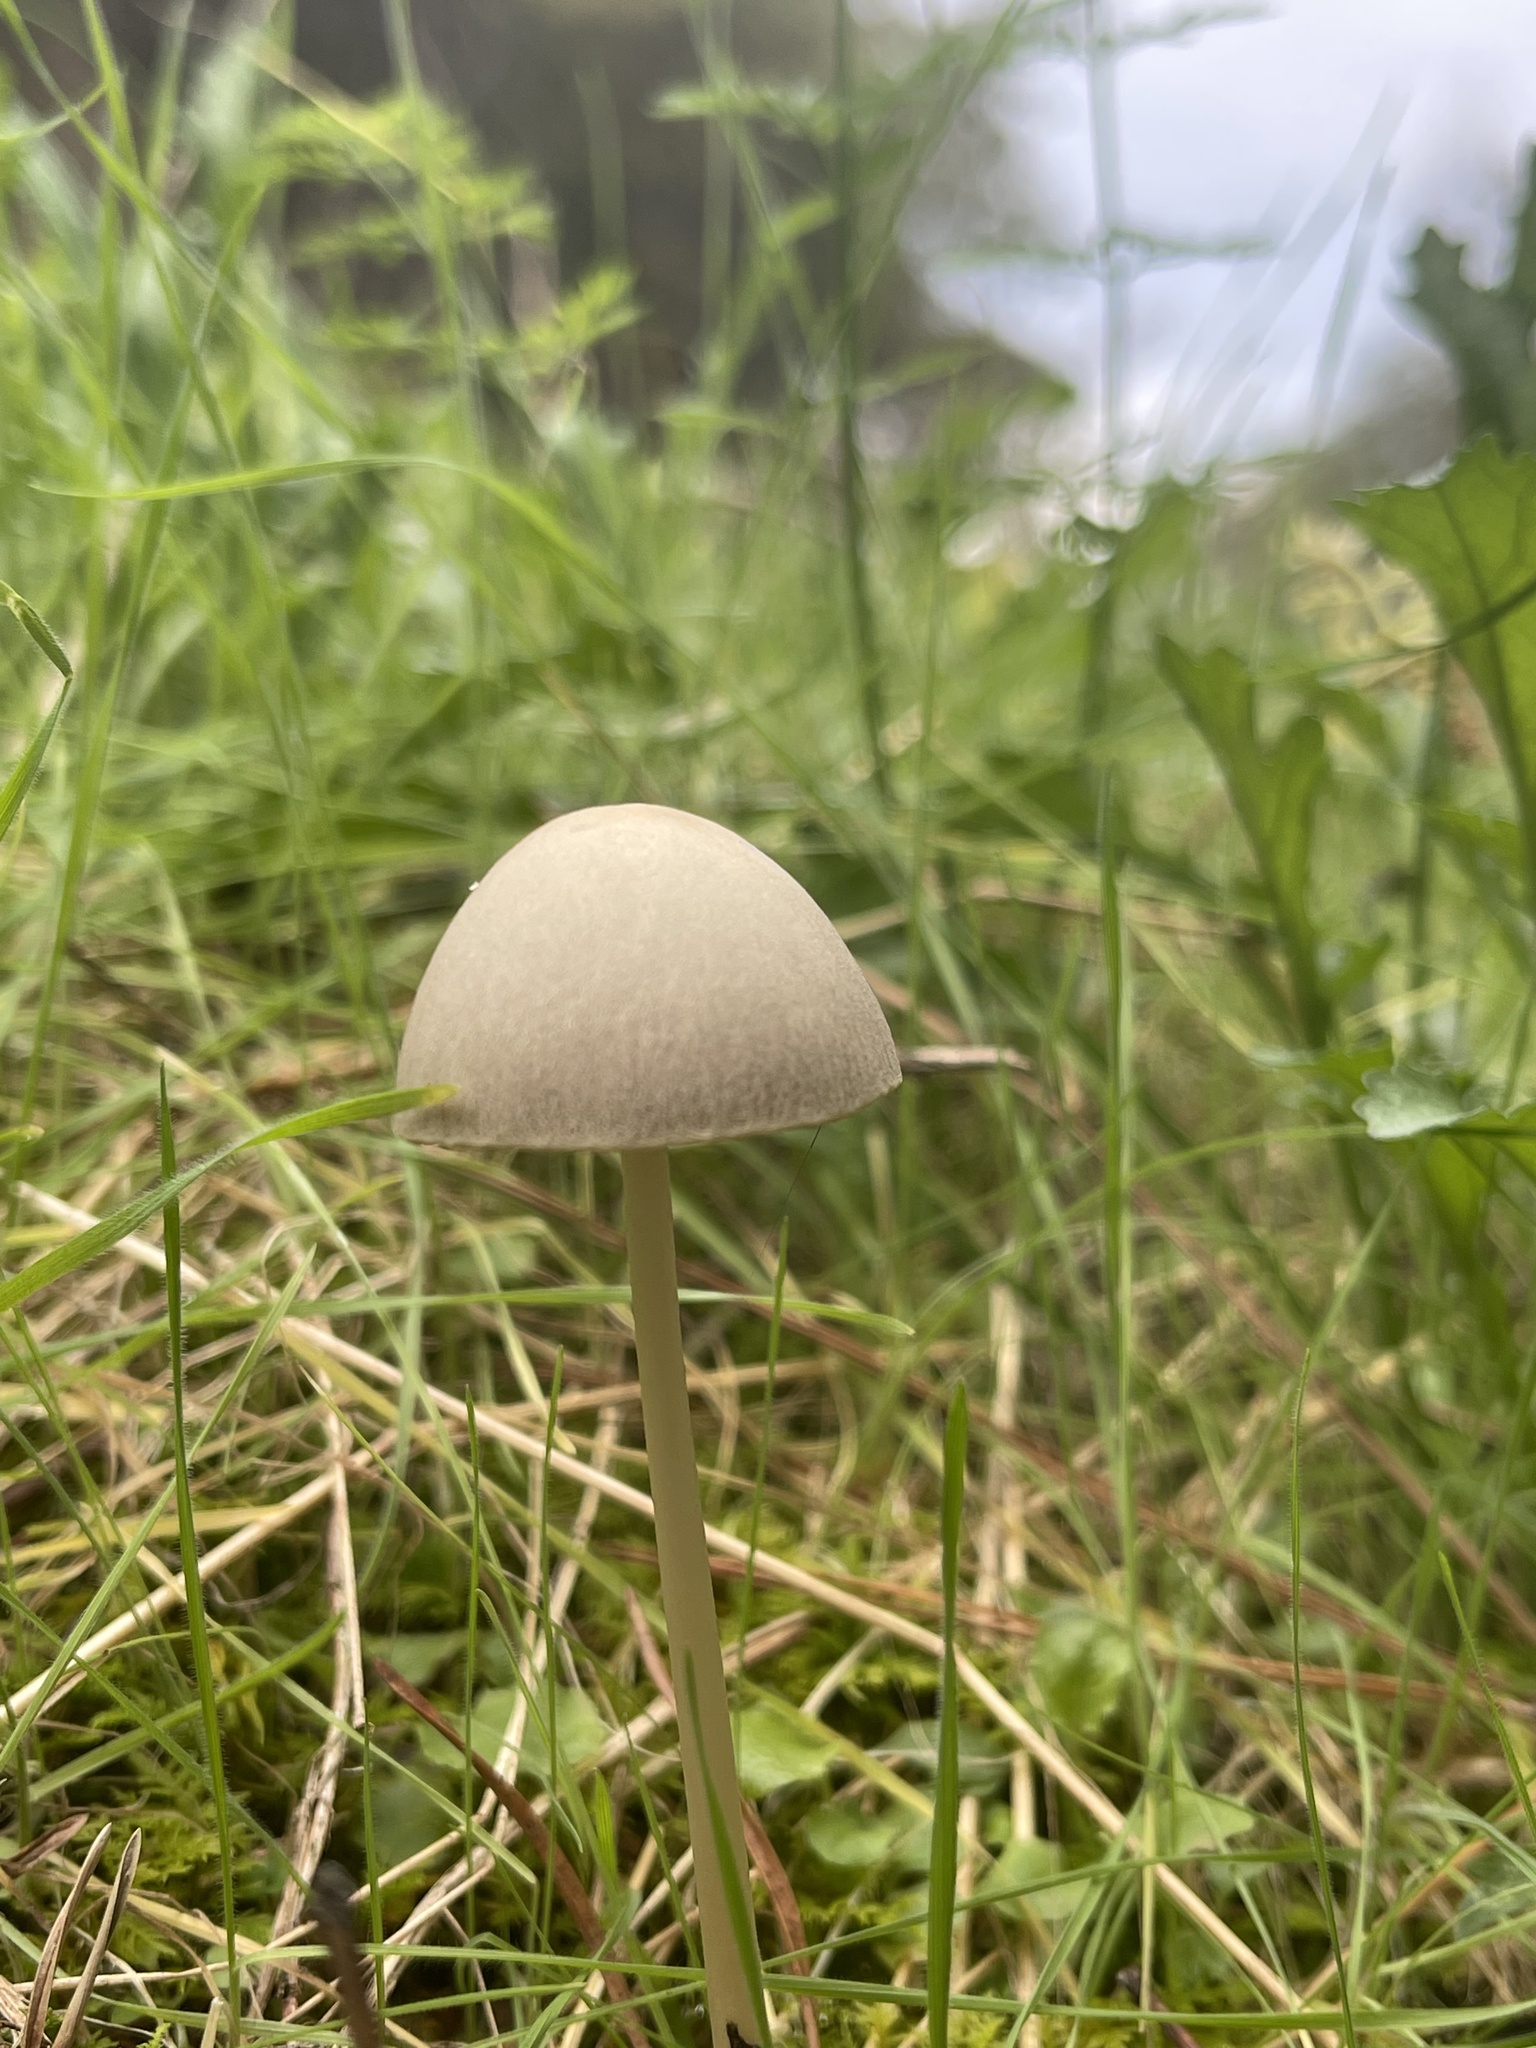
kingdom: Fungi
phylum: Basidiomycota
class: Agaricomycetes
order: Agaricales
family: Bolbitiaceae
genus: Panaeolus
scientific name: Panaeolus antillarum
